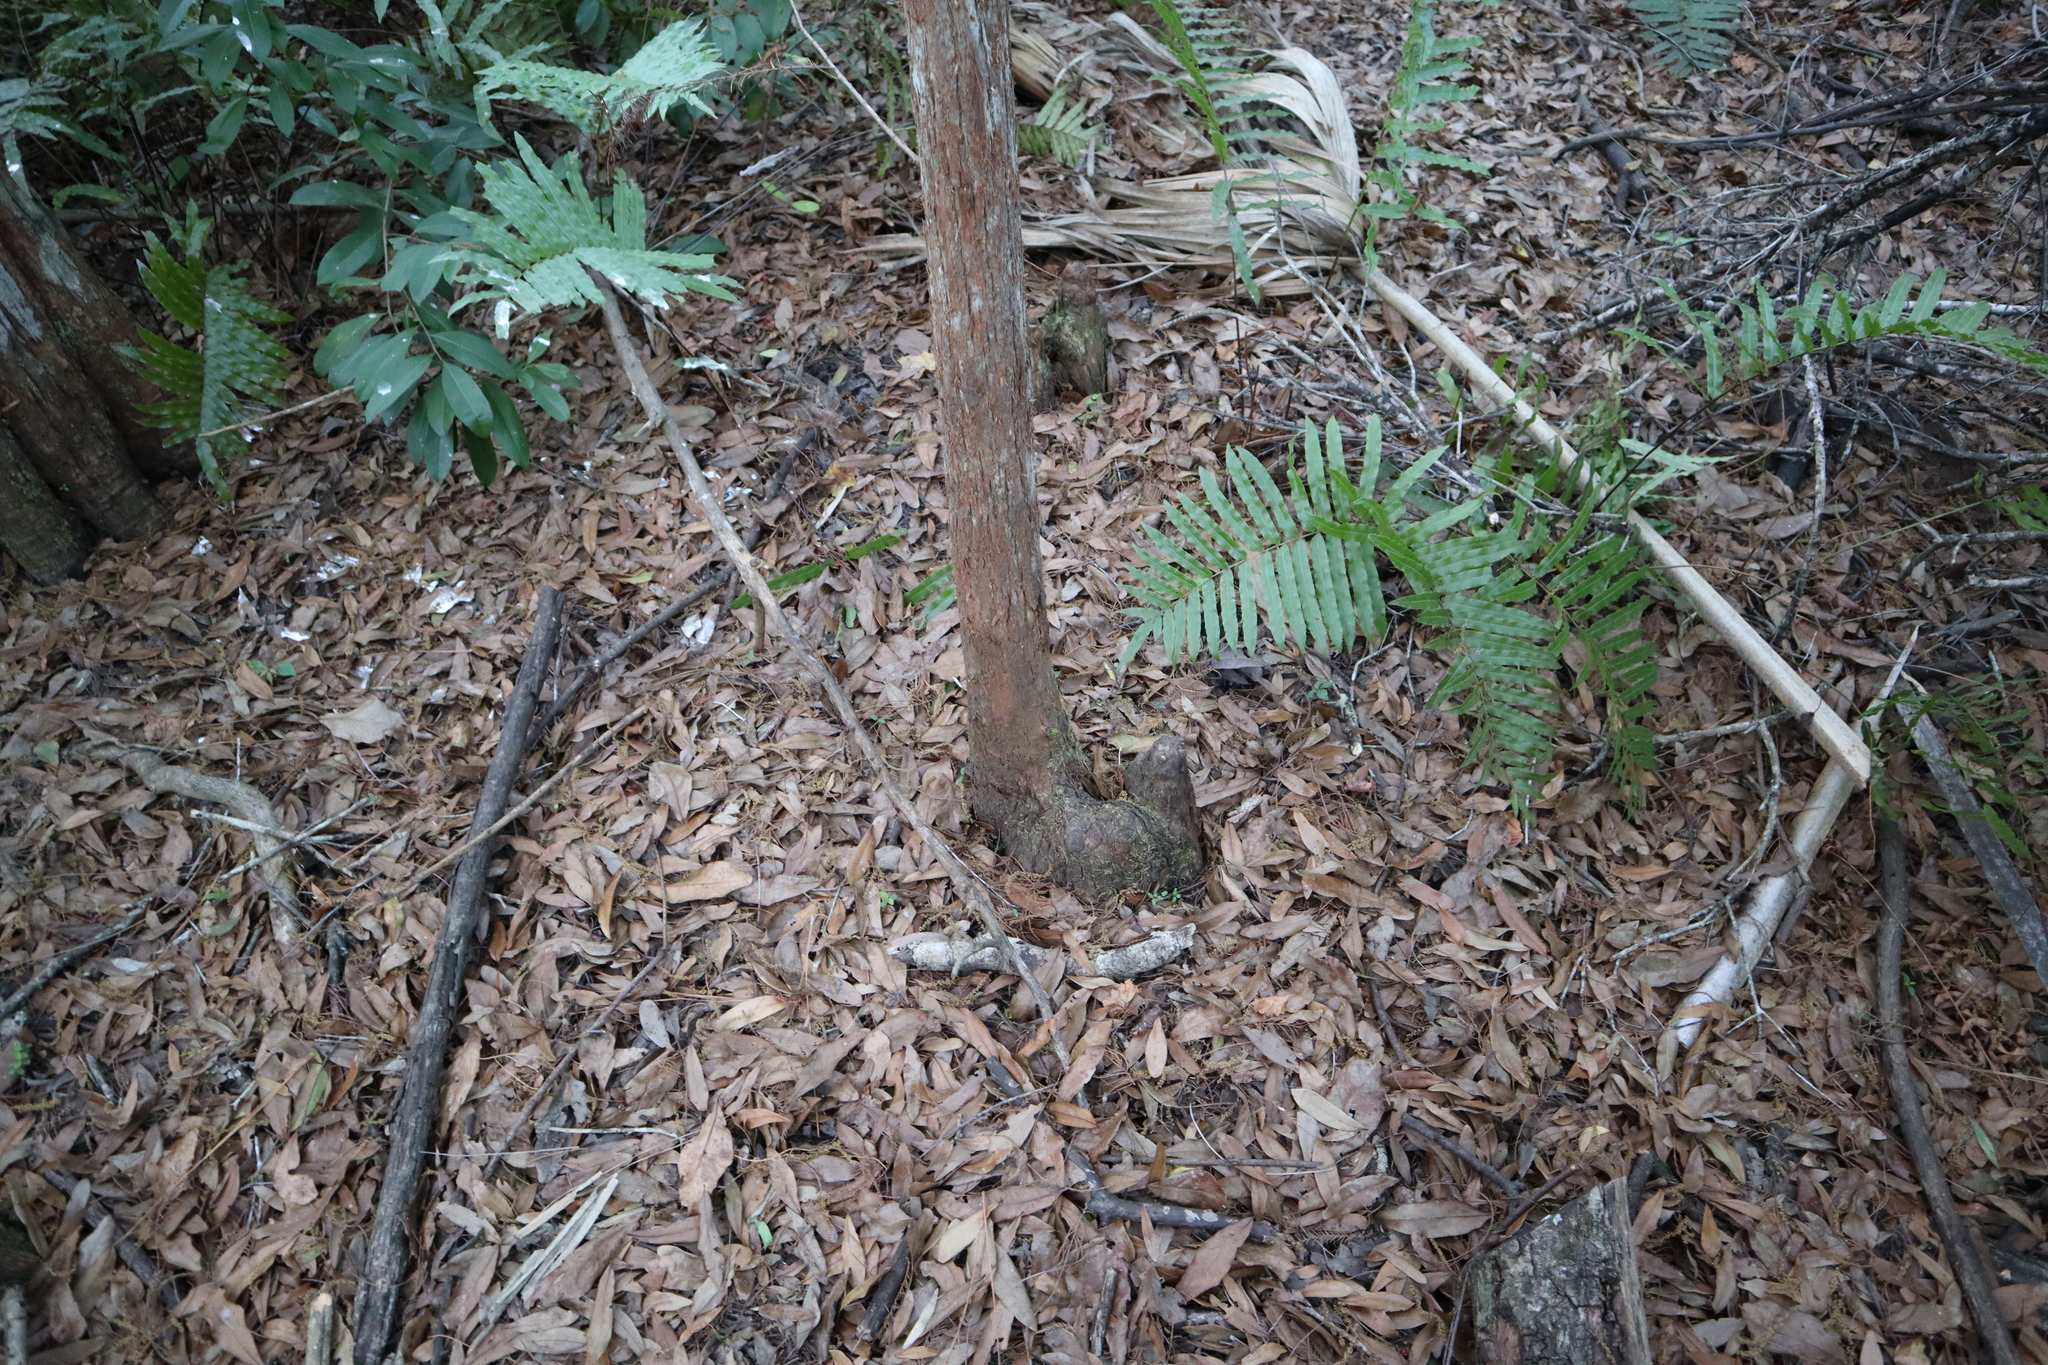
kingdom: Plantae
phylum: Tracheophyta
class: Pinopsida
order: Pinales
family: Cupressaceae
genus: Taxodium
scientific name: Taxodium distichum
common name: Bald cypress
